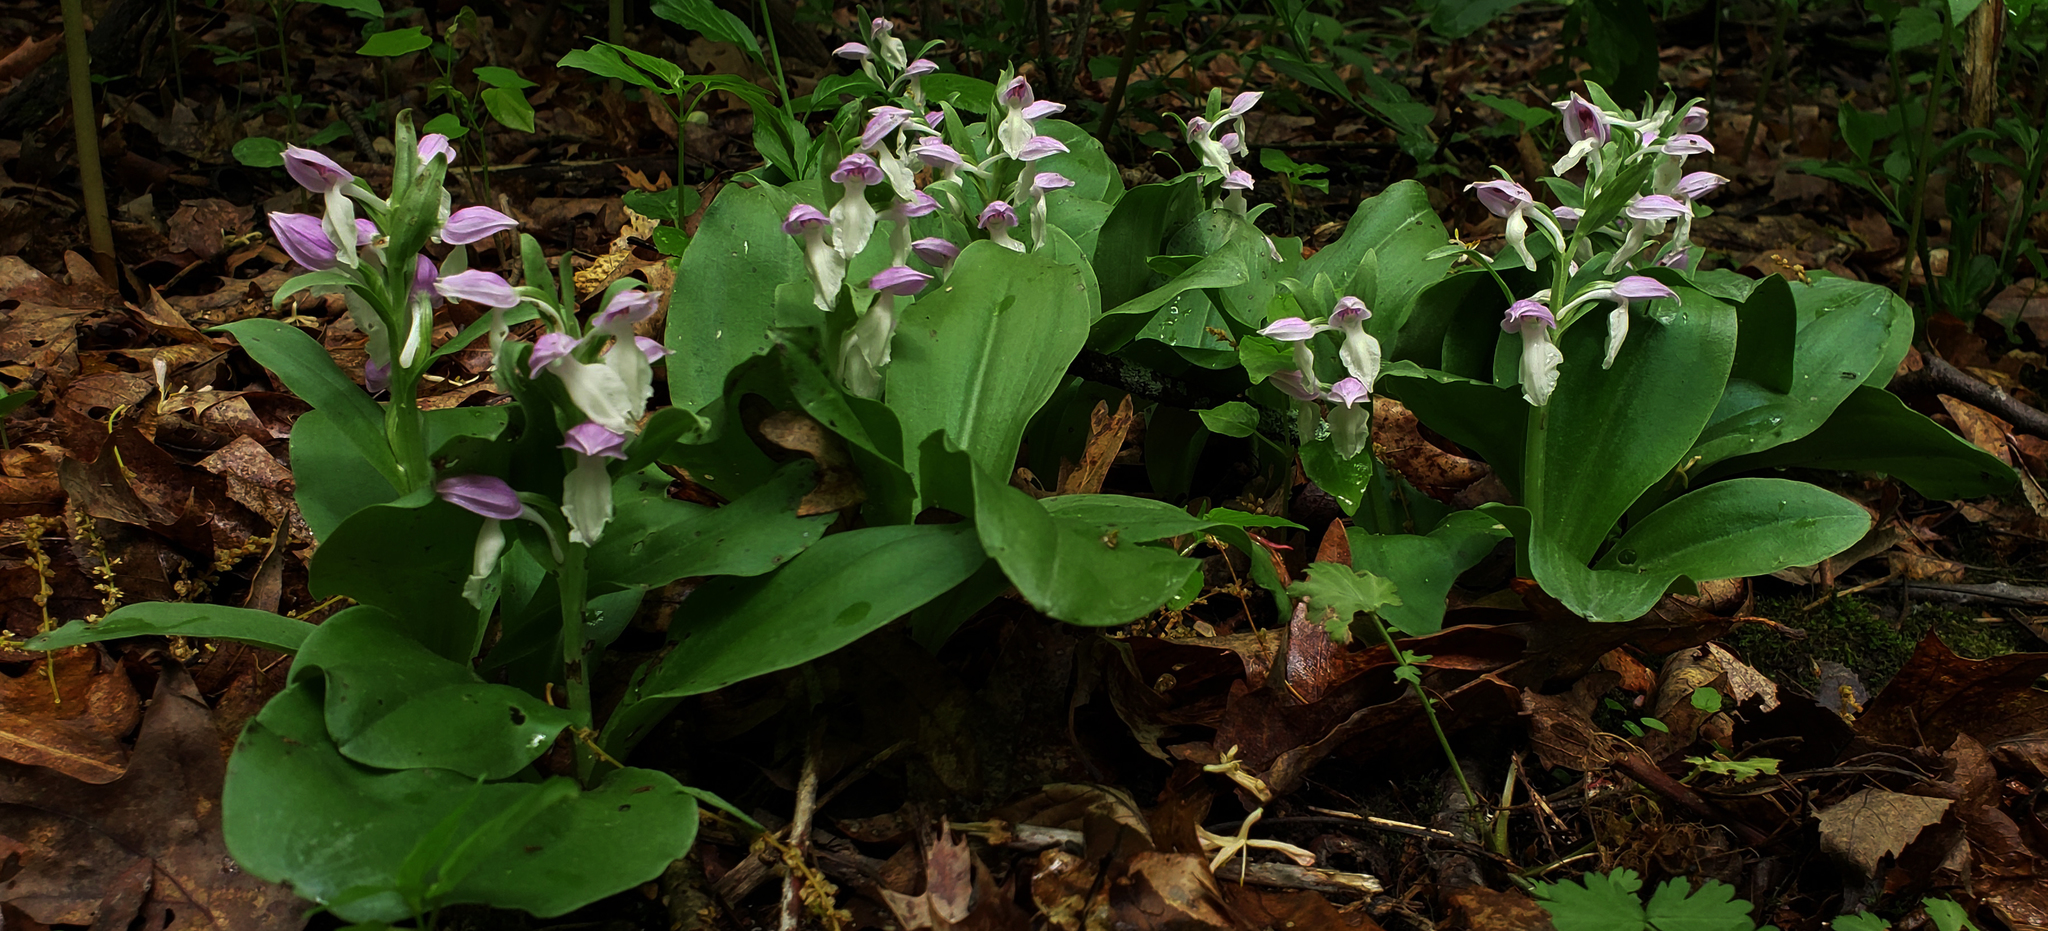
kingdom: Plantae
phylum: Tracheophyta
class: Liliopsida
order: Asparagales
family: Orchidaceae
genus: Galearis
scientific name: Galearis spectabilis
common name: Purple-hooded orchis
